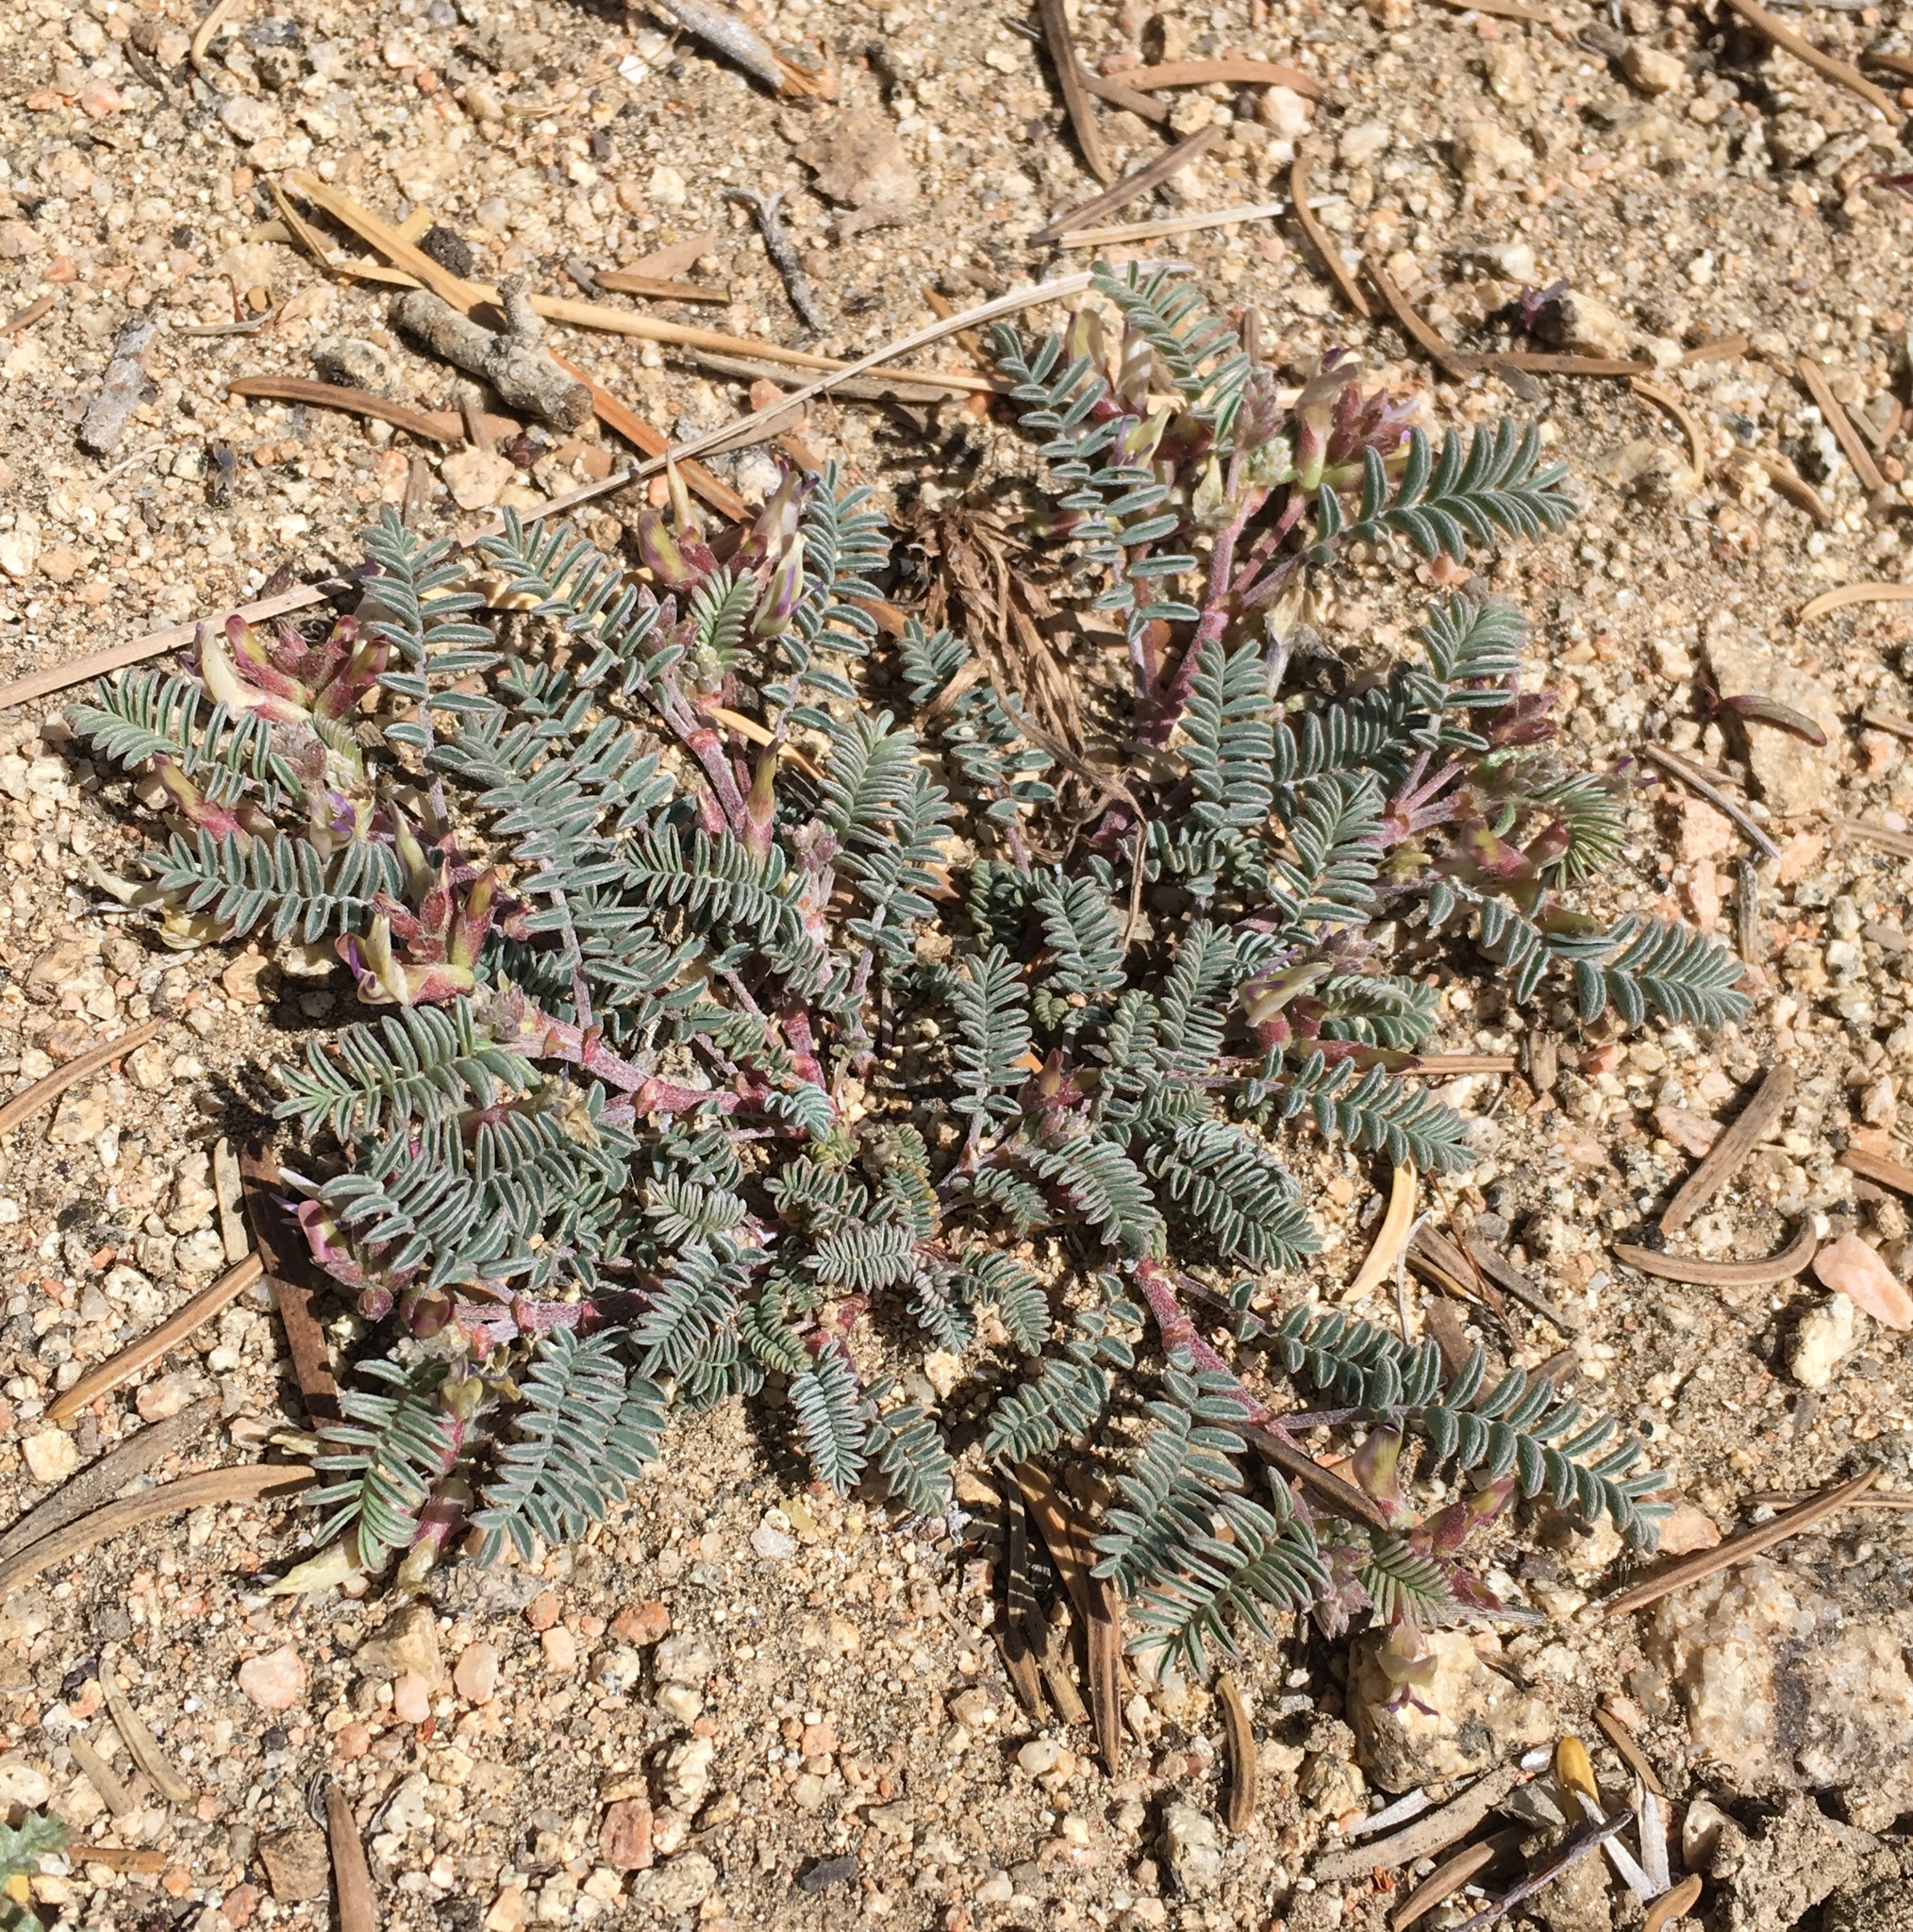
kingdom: Plantae
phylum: Tracheophyta
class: Magnoliopsida
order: Fabales
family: Fabaceae
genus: Astragalus
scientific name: Astragalus lentiginosus
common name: Freckled milkvetch
